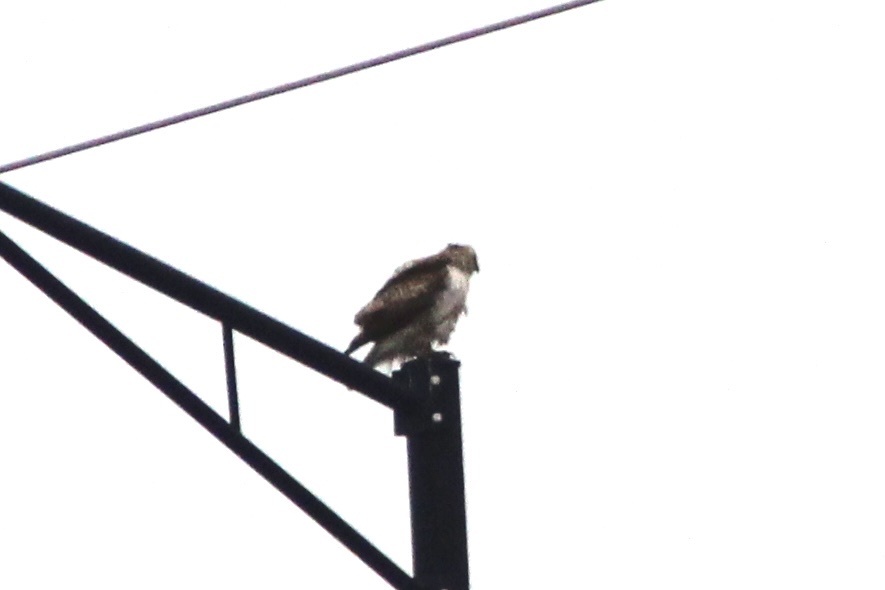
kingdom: Animalia
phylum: Chordata
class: Aves
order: Accipitriformes
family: Accipitridae
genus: Buteo
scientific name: Buteo jamaicensis
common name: Red-tailed hawk
